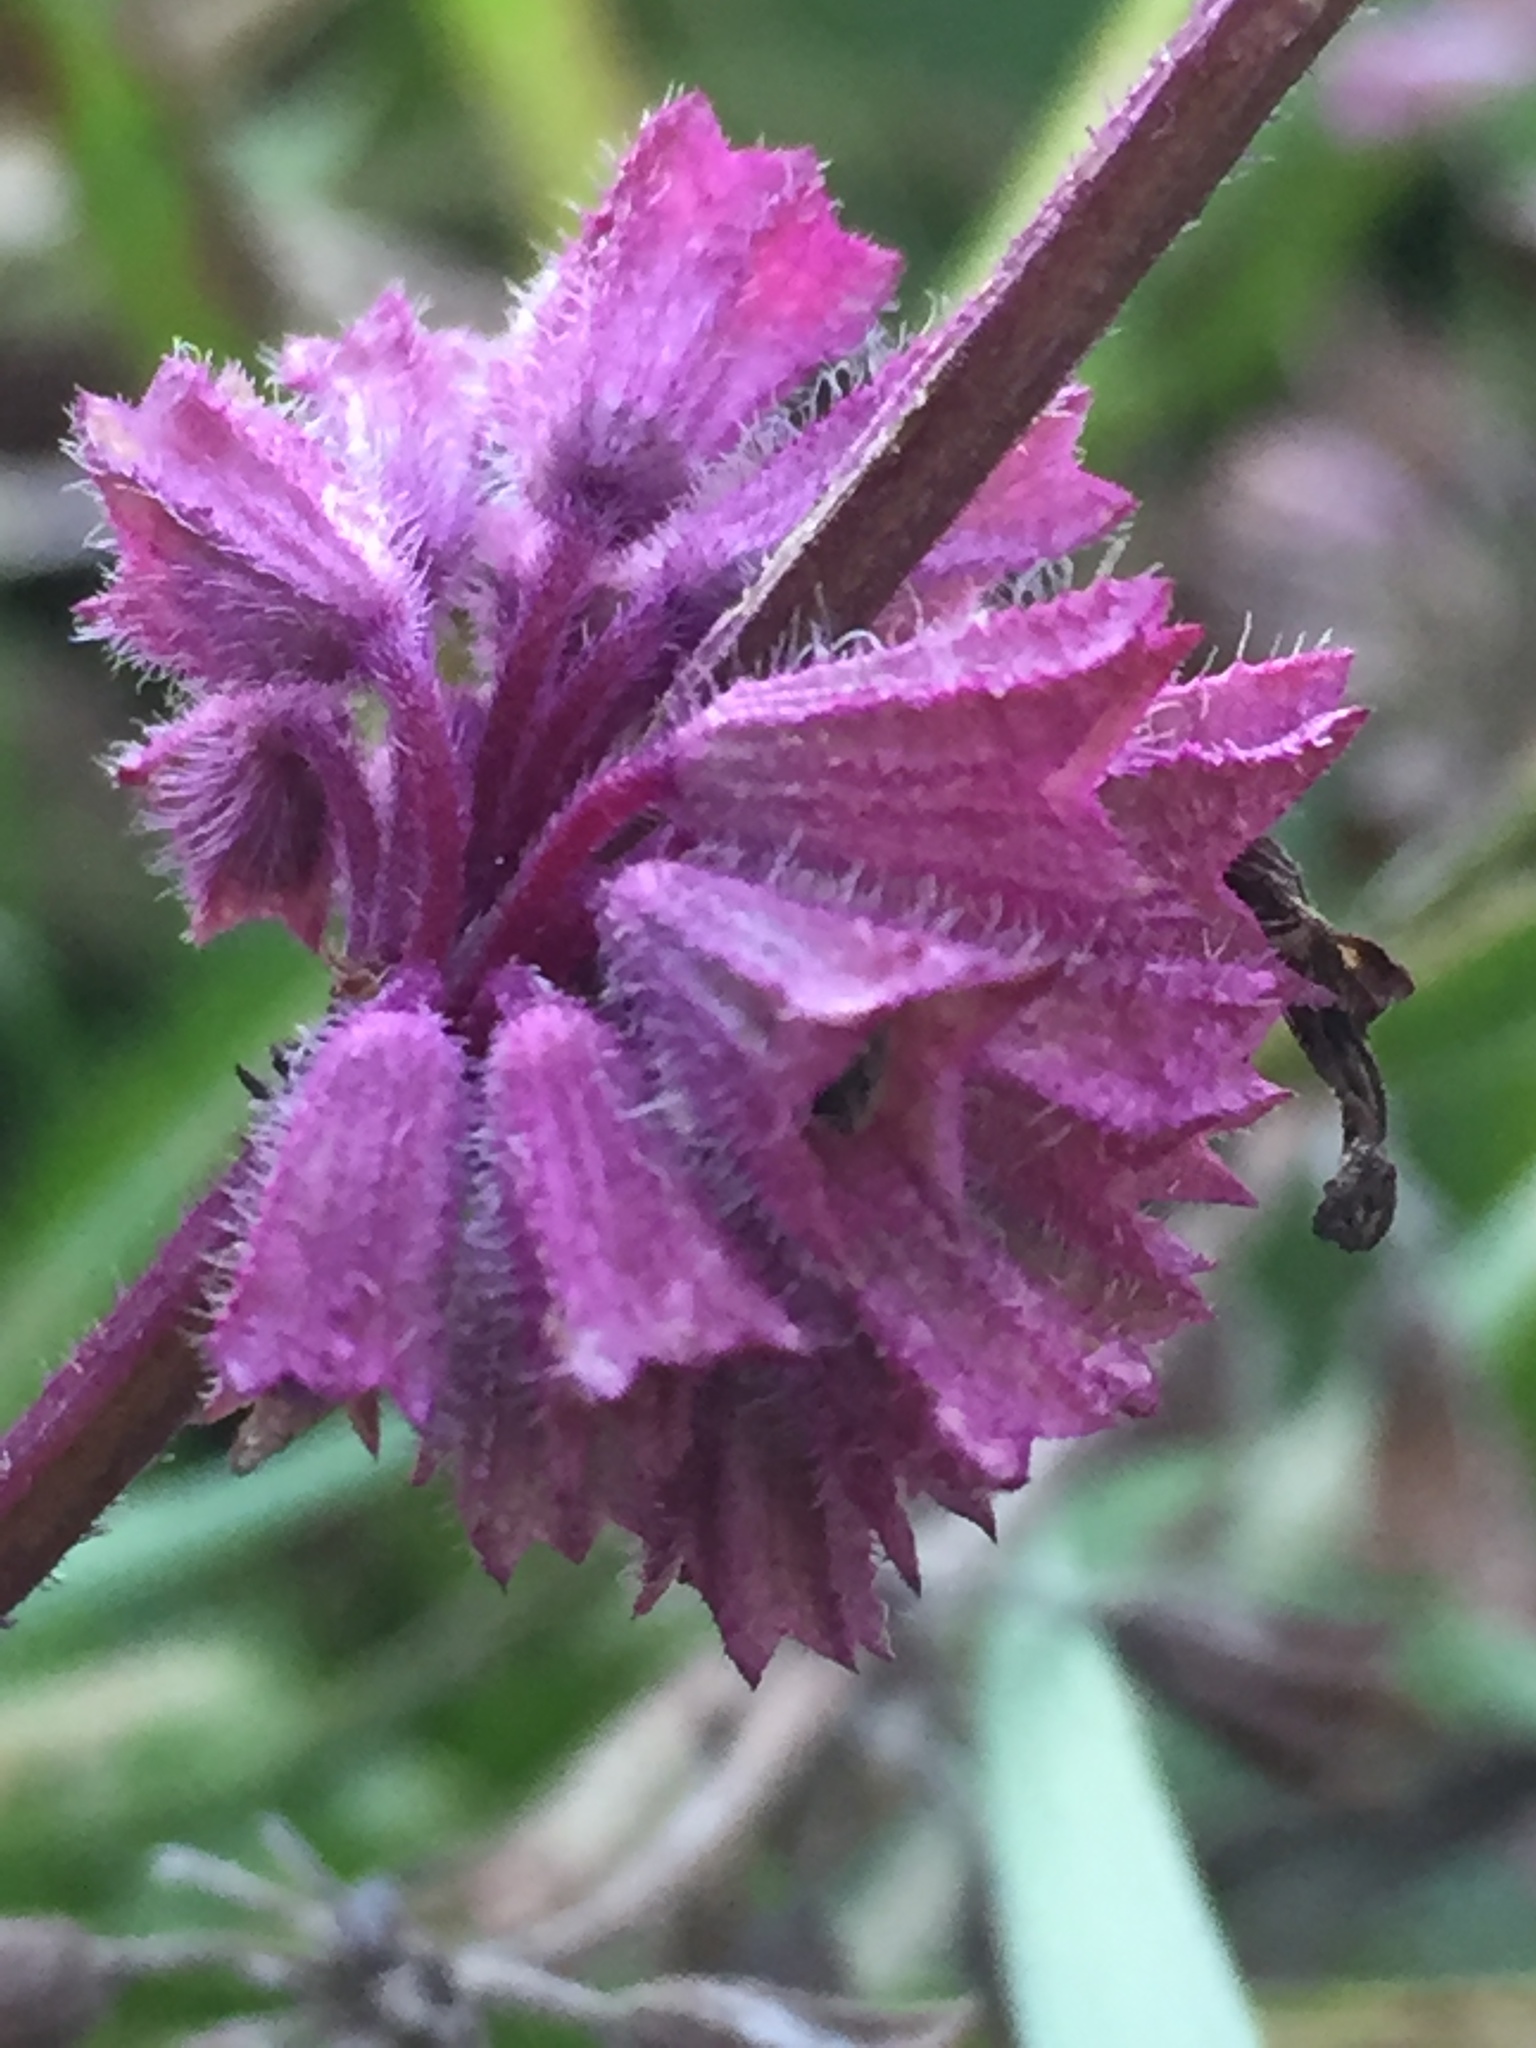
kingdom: Plantae
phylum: Tracheophyta
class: Magnoliopsida
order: Lamiales
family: Lamiaceae
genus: Salvia
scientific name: Salvia verticillata
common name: Whorled clary
